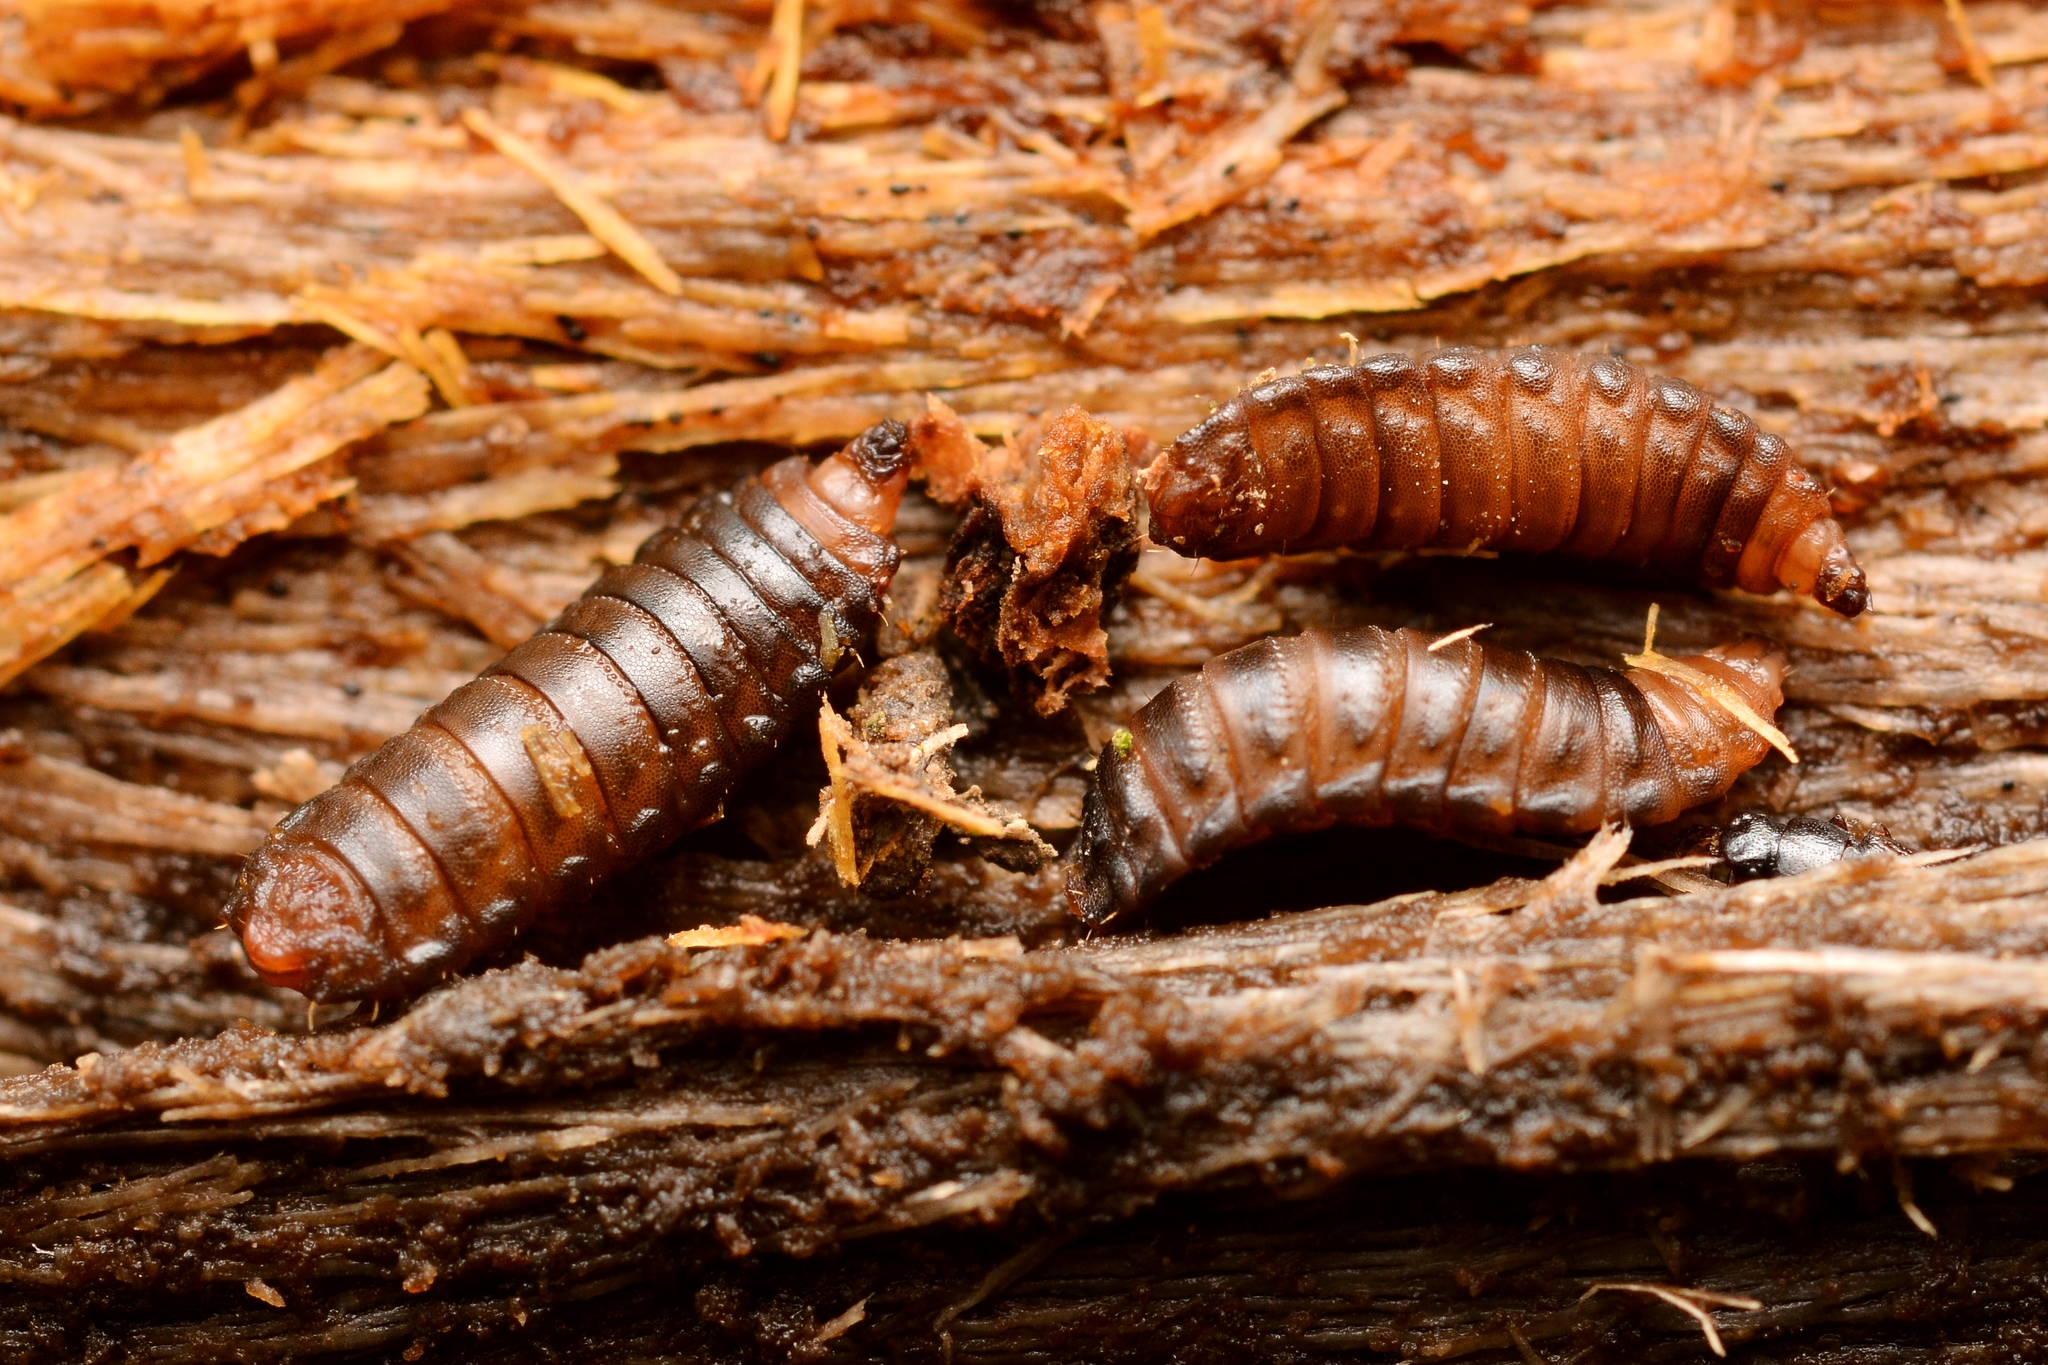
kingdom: Animalia
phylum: Arthropoda
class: Insecta
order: Diptera
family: Xylomyidae
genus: Solva
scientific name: Solva marginata
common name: Drab wood-soldierfly
